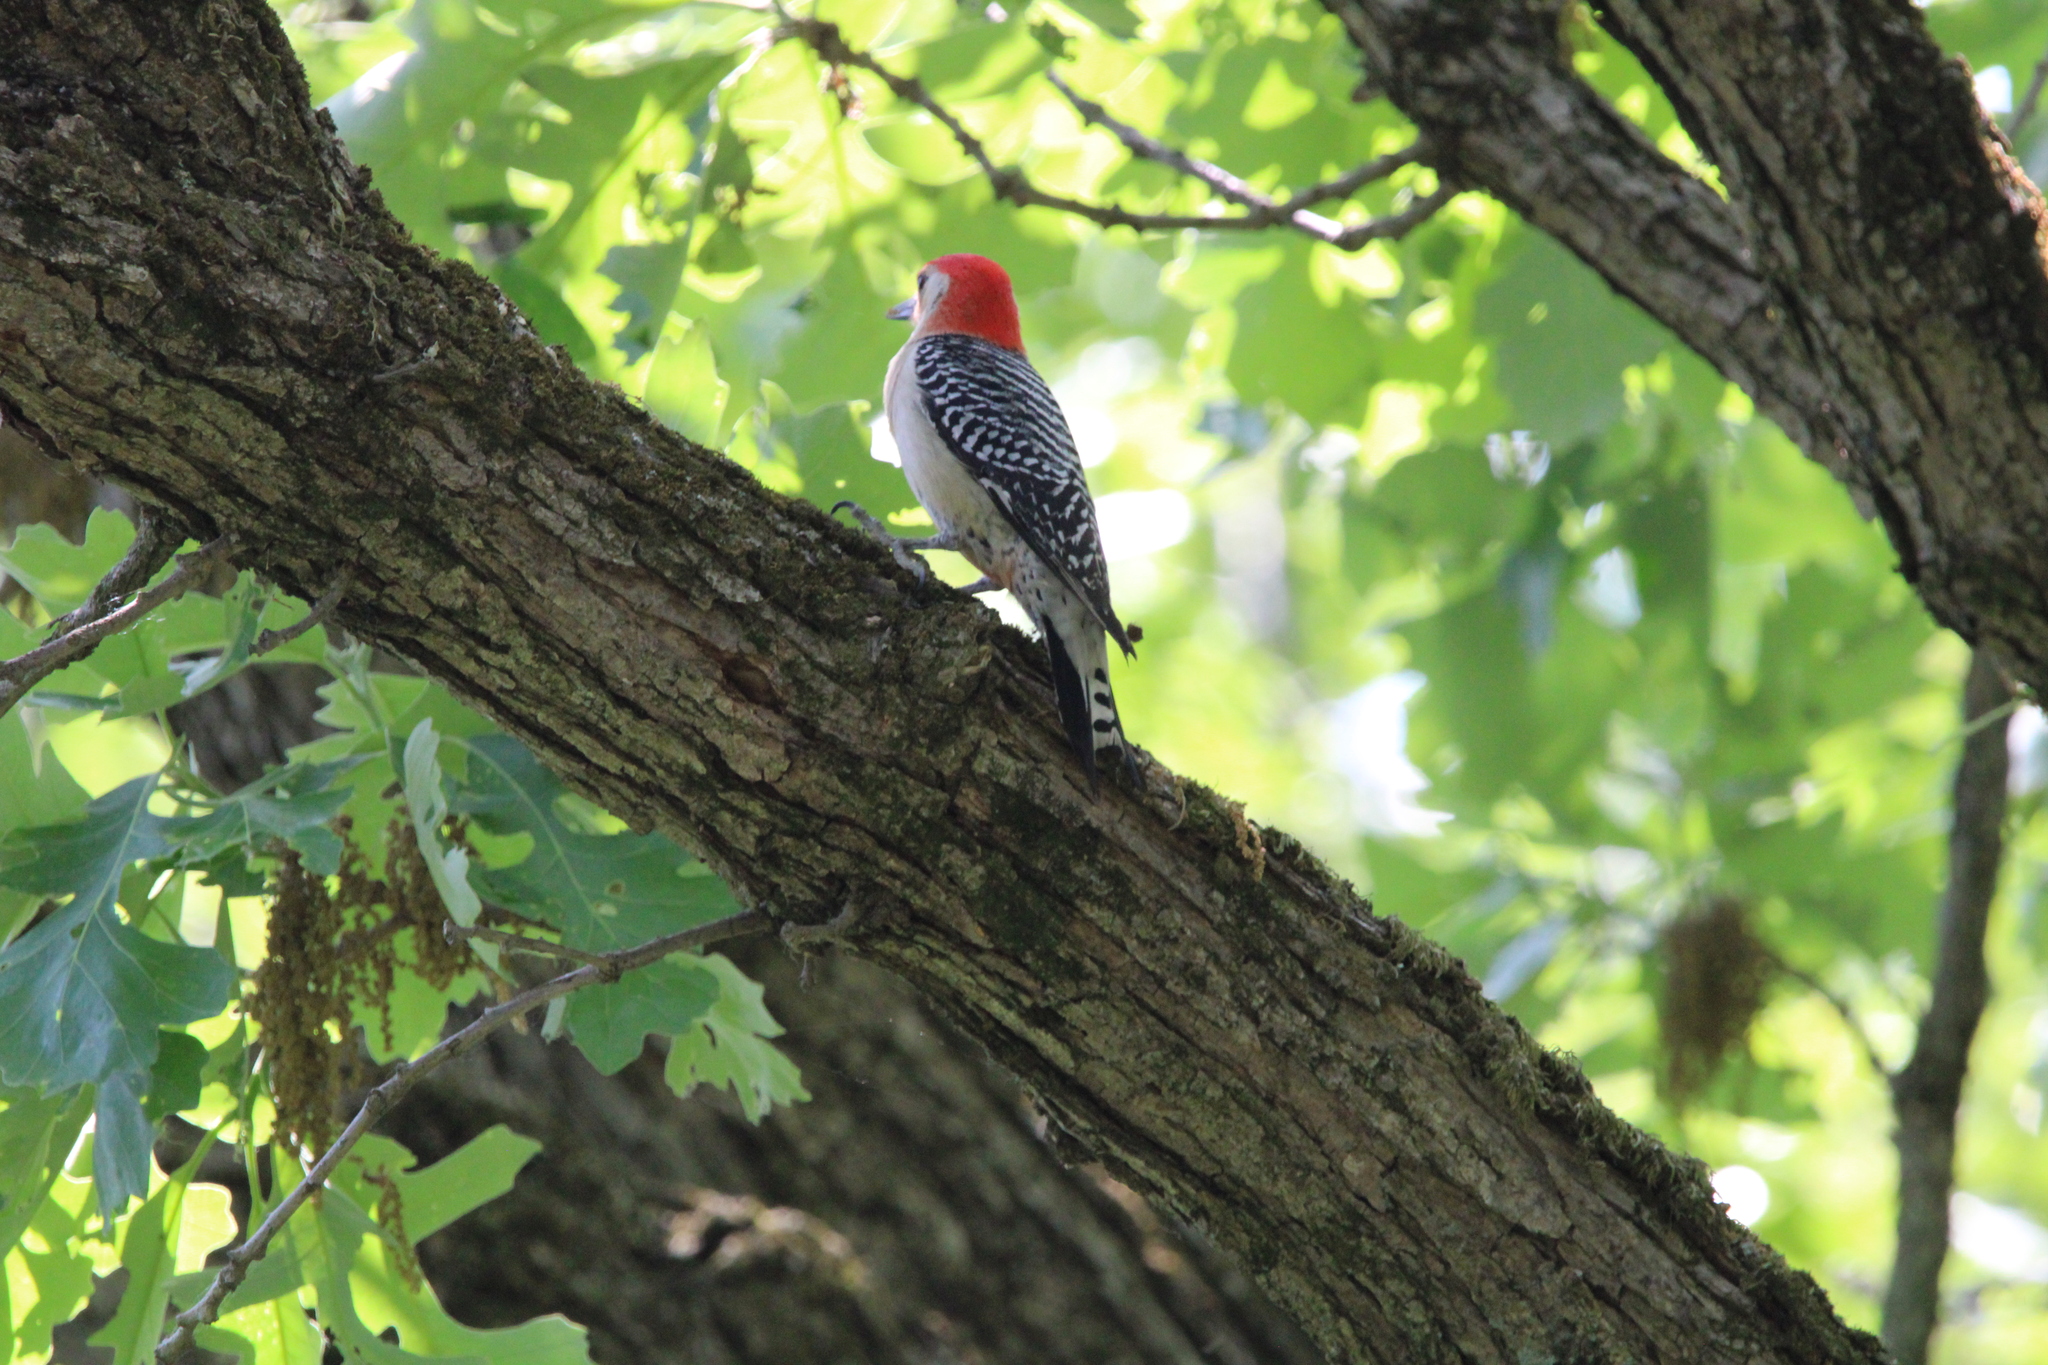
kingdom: Animalia
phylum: Chordata
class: Aves
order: Piciformes
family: Picidae
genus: Melanerpes
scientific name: Melanerpes carolinus
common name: Red-bellied woodpecker
